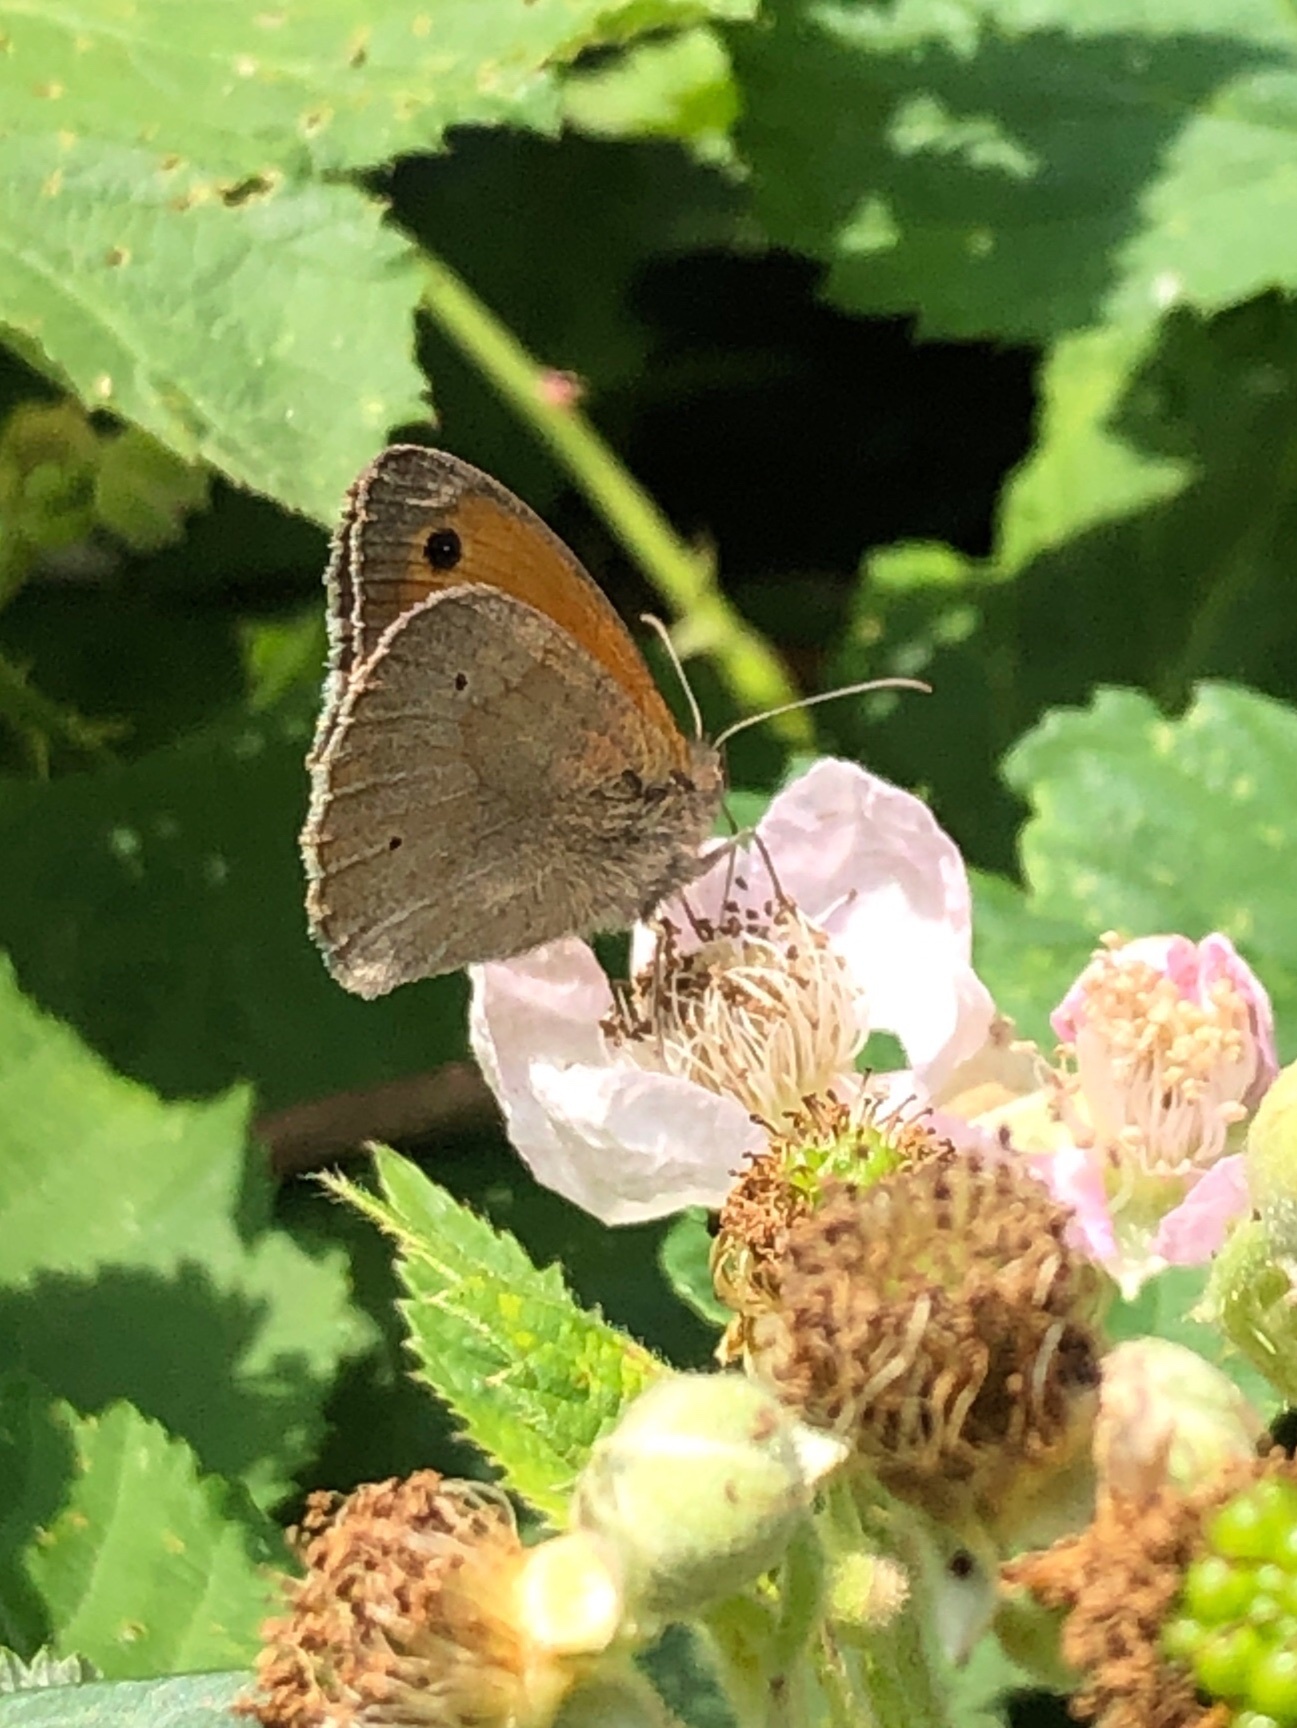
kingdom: Animalia
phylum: Arthropoda
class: Insecta
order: Lepidoptera
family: Nymphalidae
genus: Maniola
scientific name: Maniola jurtina
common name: Meadow brown
